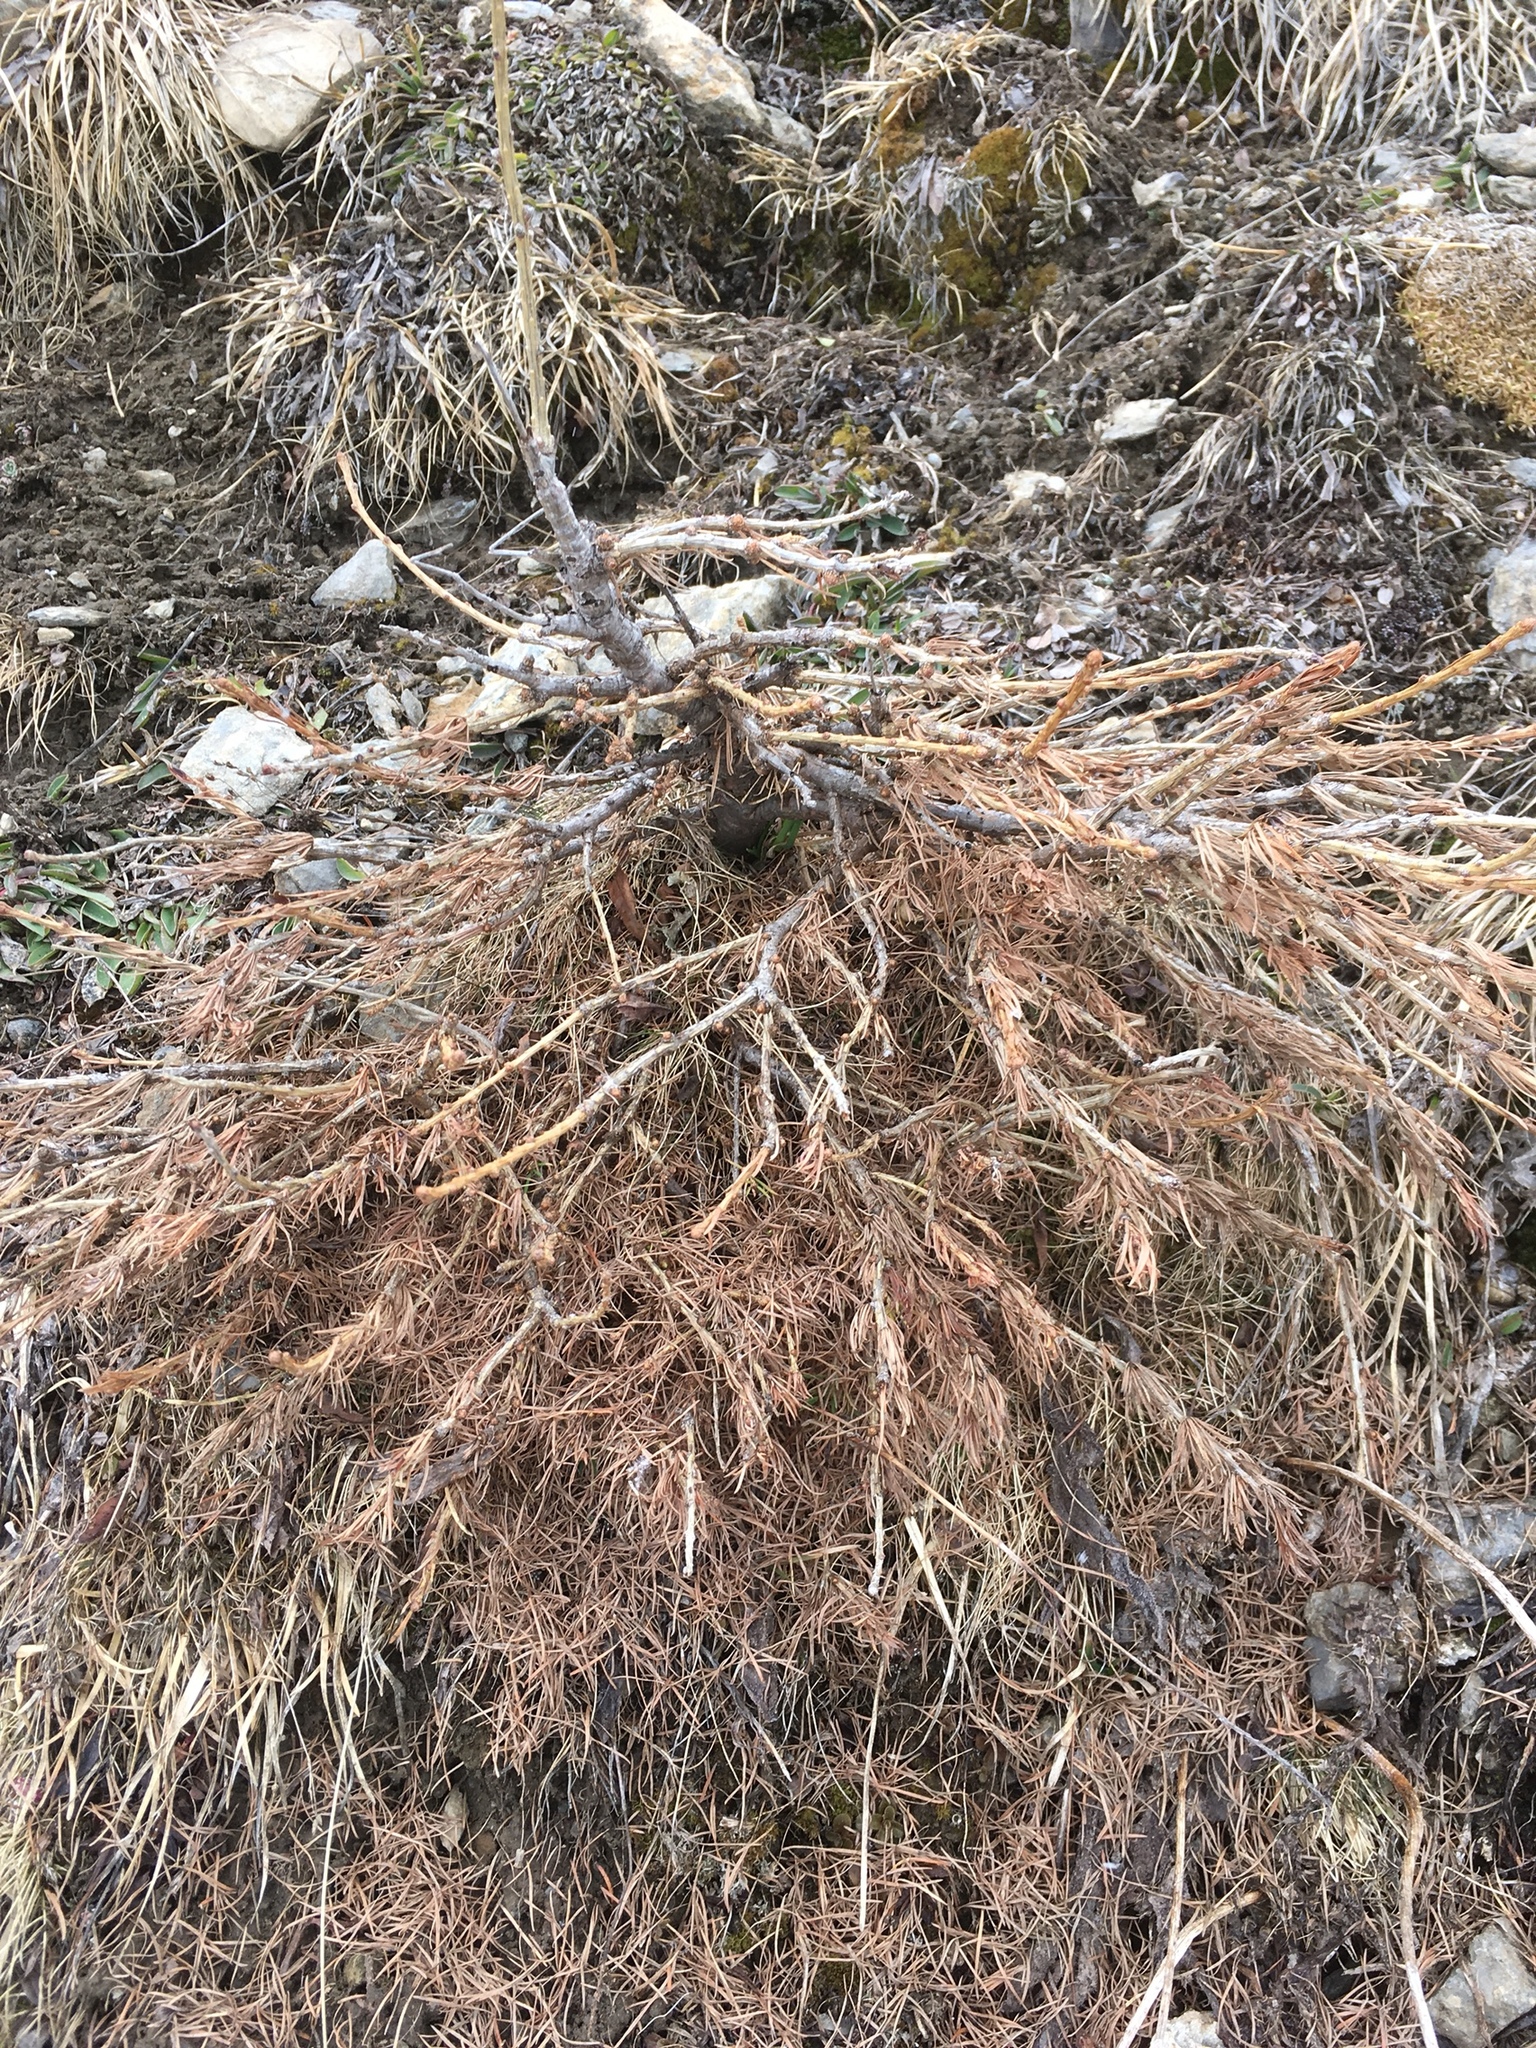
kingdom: Plantae
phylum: Tracheophyta
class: Pinopsida
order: Pinales
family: Pinaceae
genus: Larix
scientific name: Larix decidua
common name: European larch
